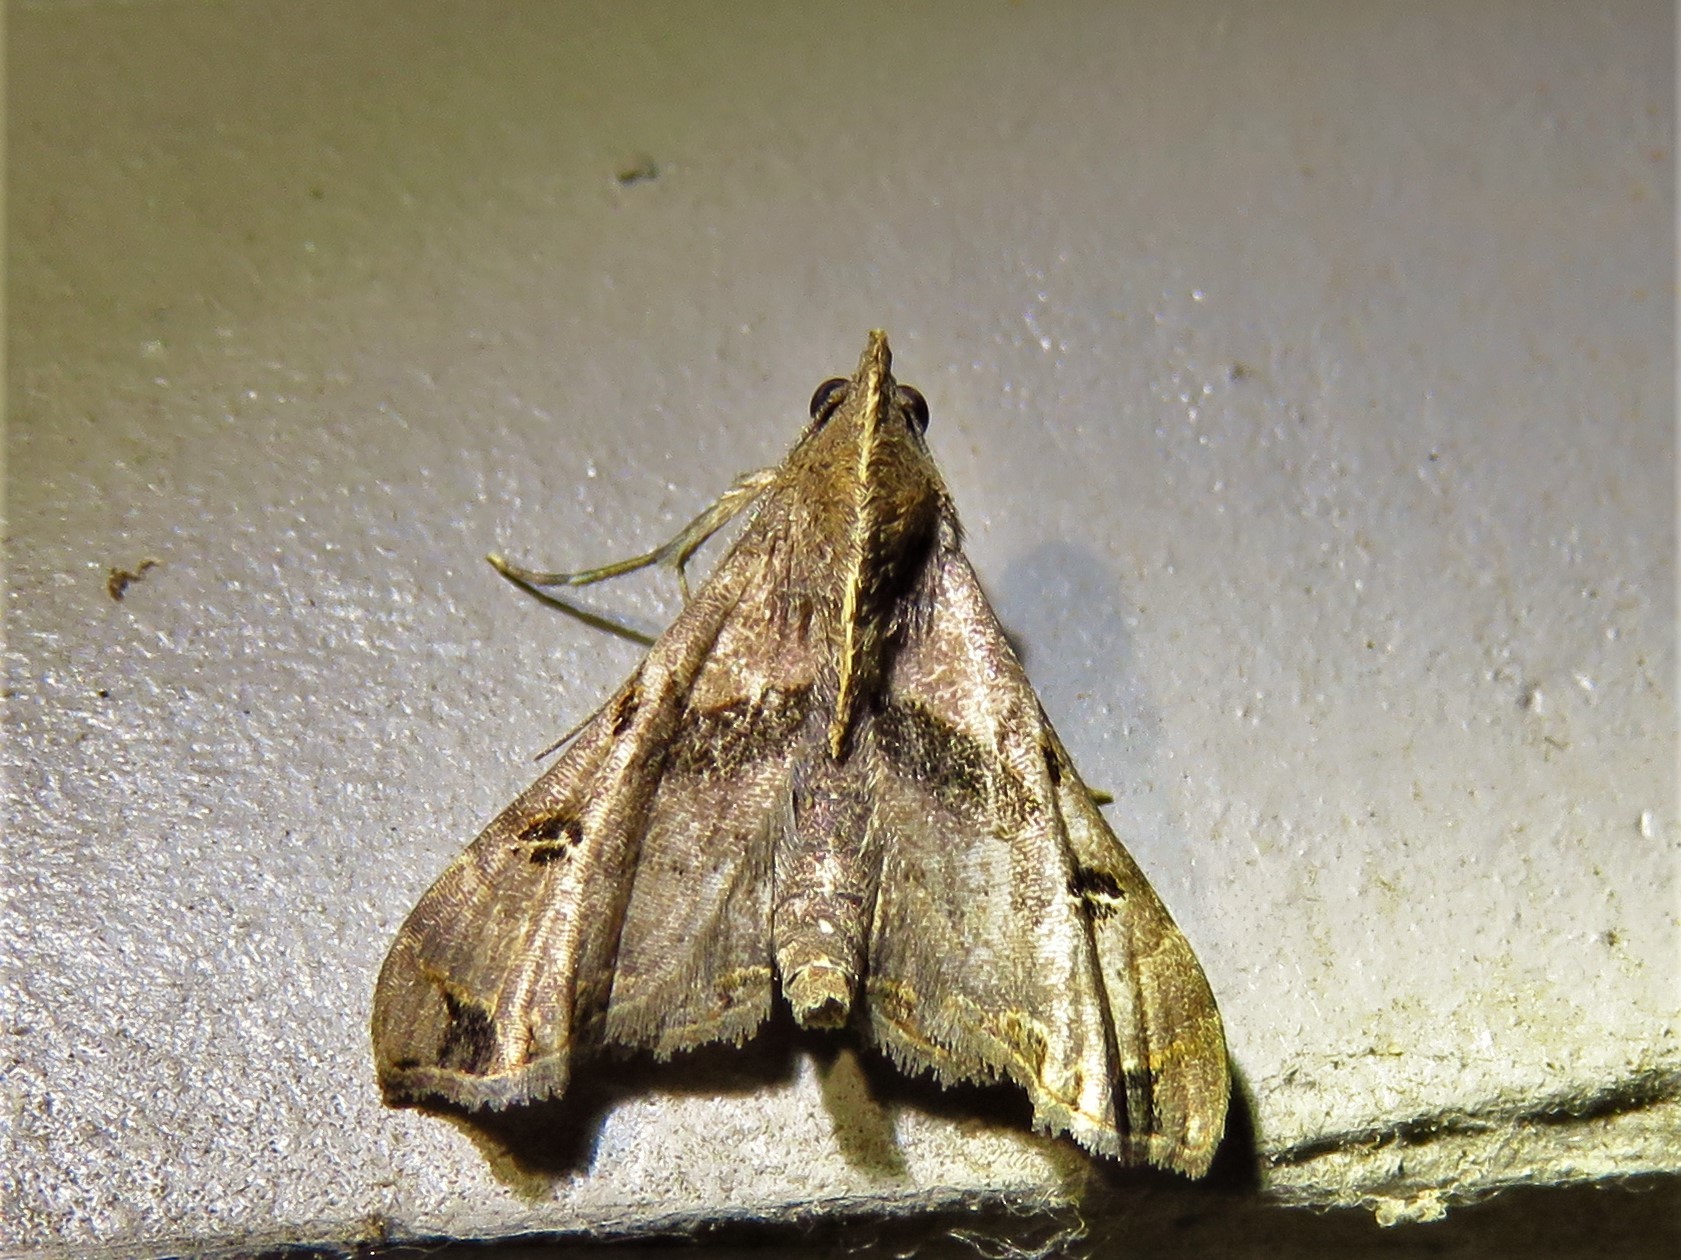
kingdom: Animalia
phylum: Arthropoda
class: Insecta
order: Lepidoptera
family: Erebidae
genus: Palthis
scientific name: Palthis asopialis
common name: Faint-spotted palthis moth
